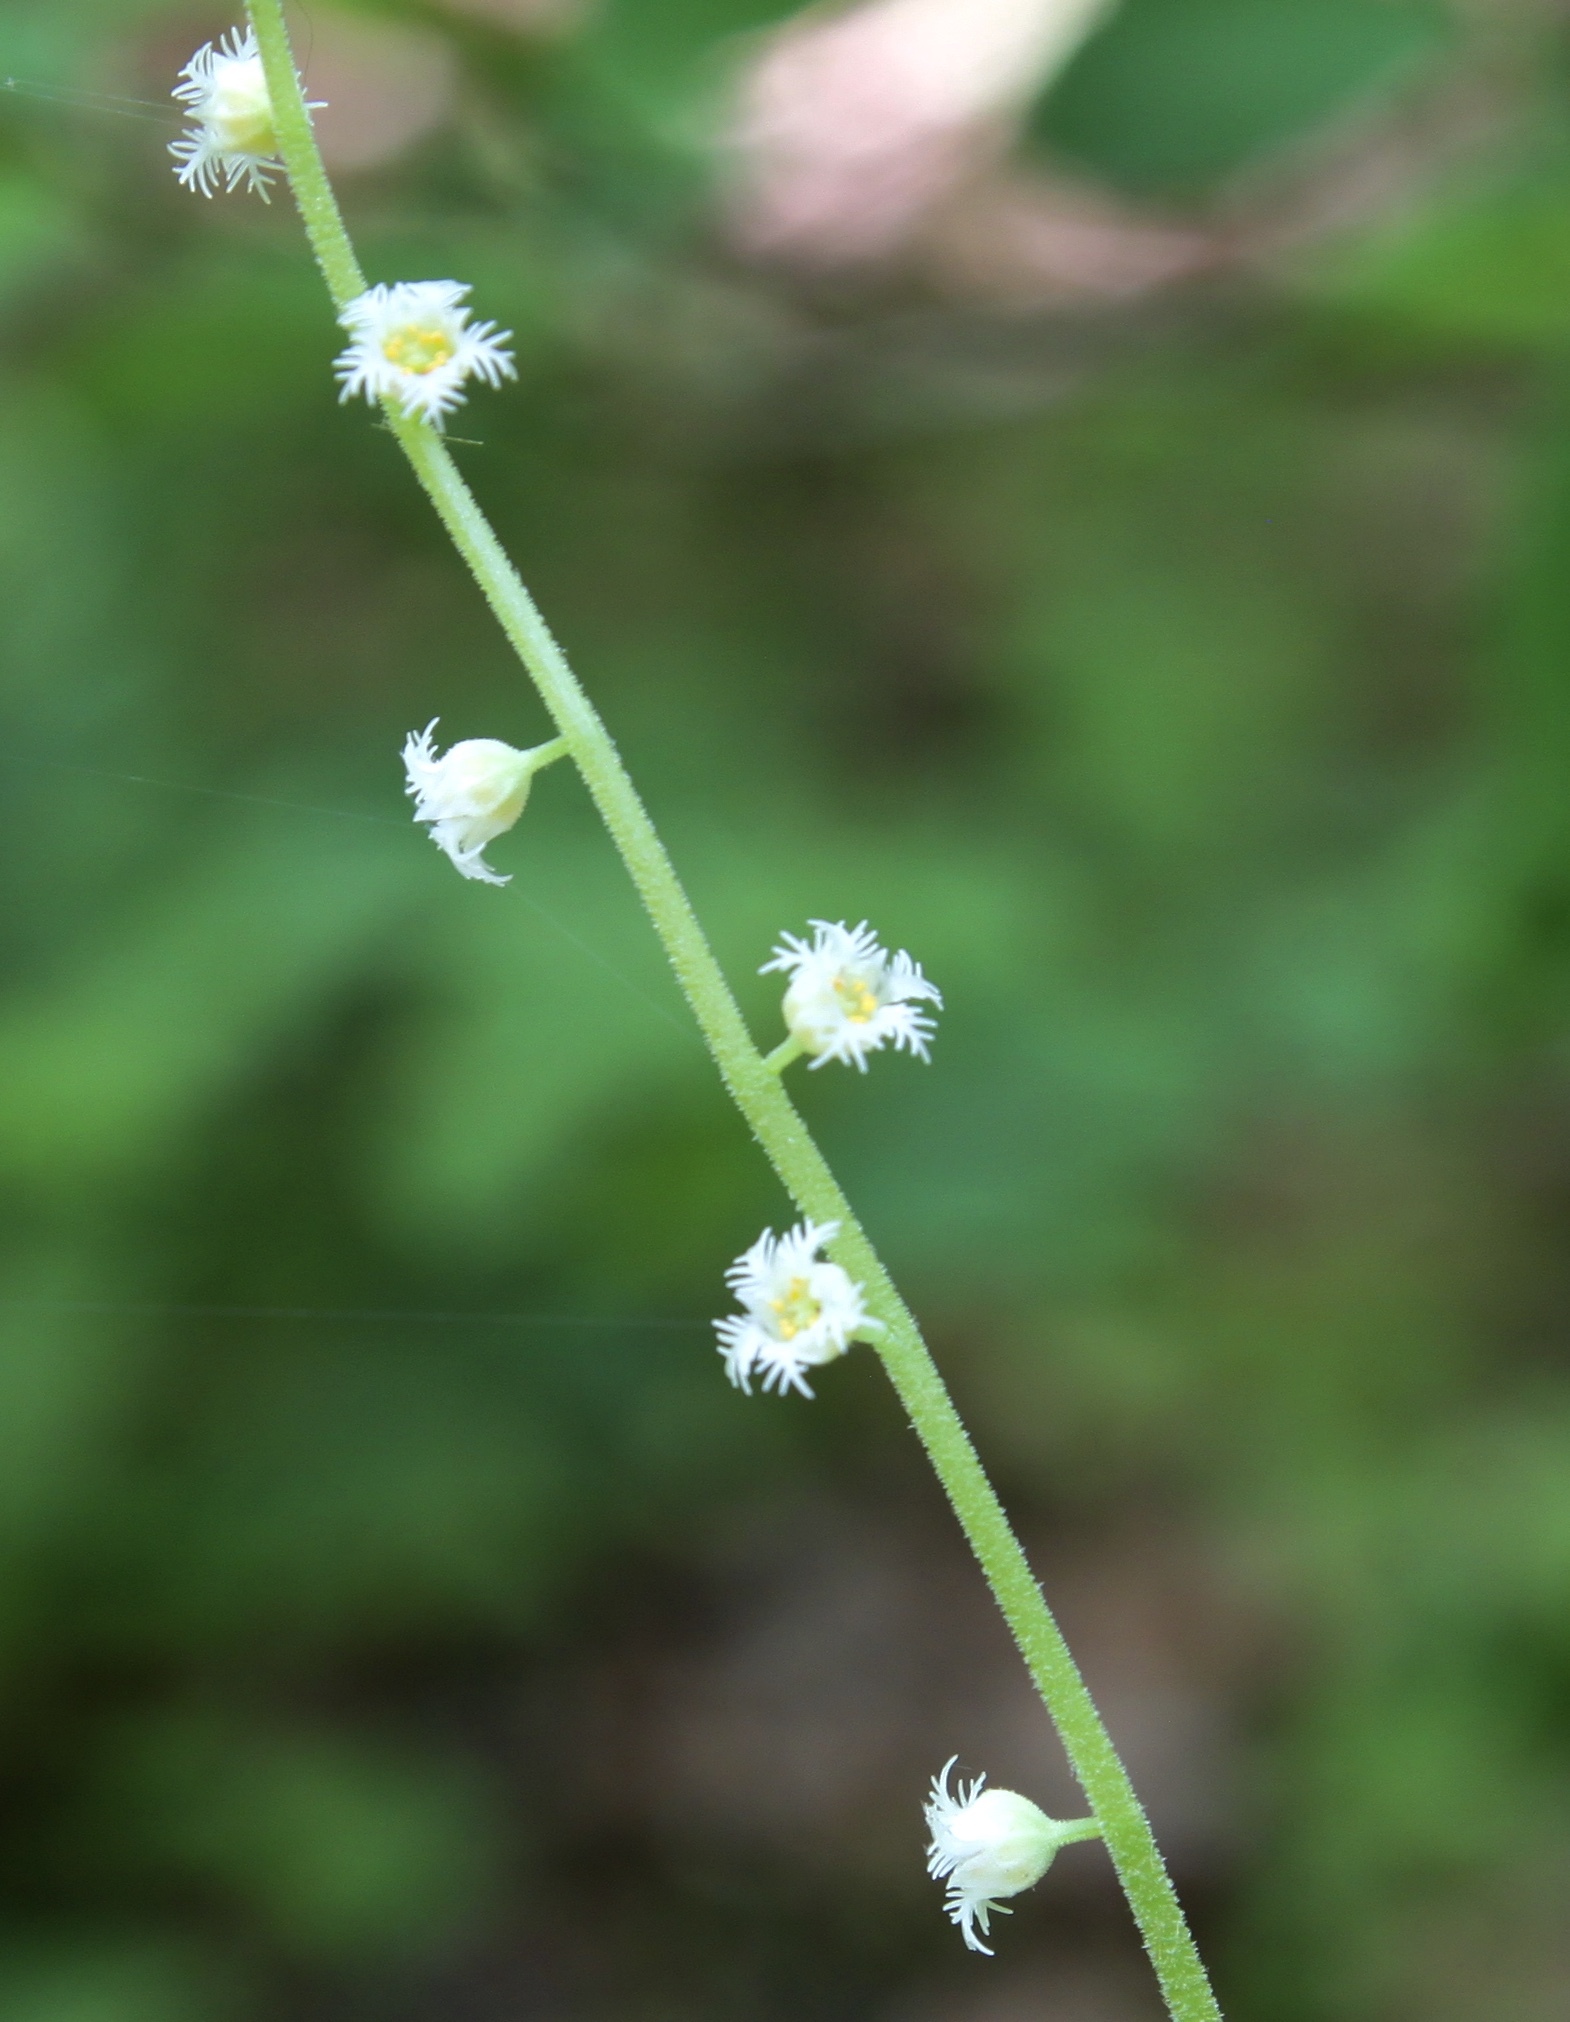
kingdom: Plantae
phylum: Tracheophyta
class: Magnoliopsida
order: Saxifragales
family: Saxifragaceae
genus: Mitella
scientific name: Mitella diphylla
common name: Coolwort
